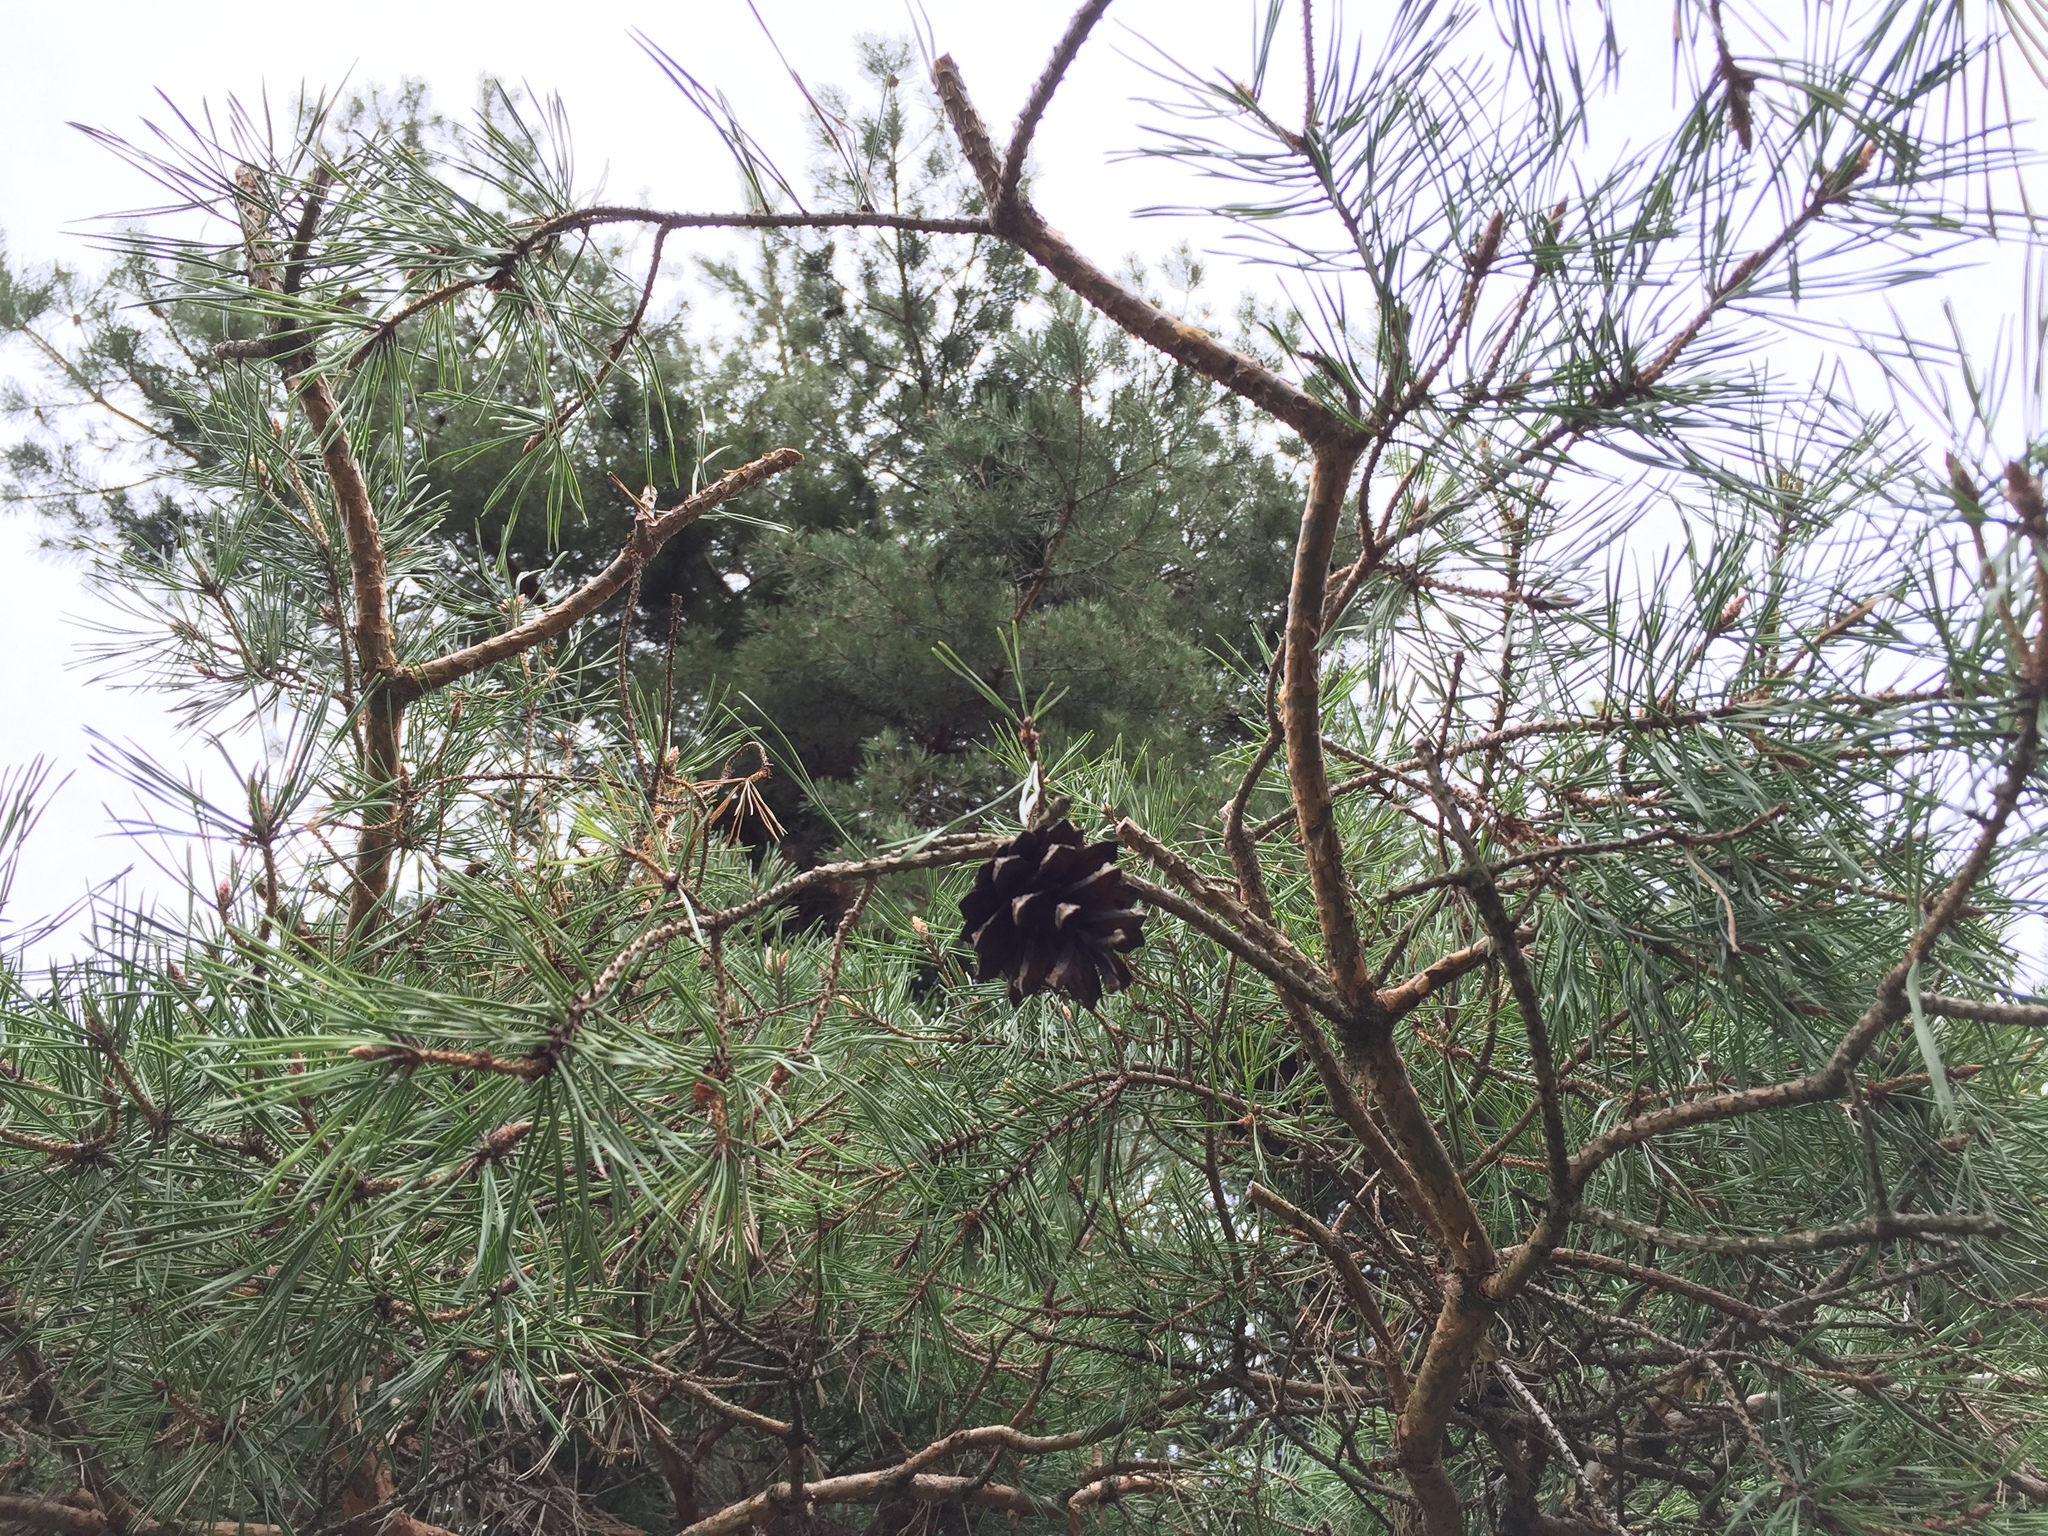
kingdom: Plantae
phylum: Tracheophyta
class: Pinopsida
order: Pinales
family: Pinaceae
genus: Pinus
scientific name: Pinus sylvestris
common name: Scots pine
